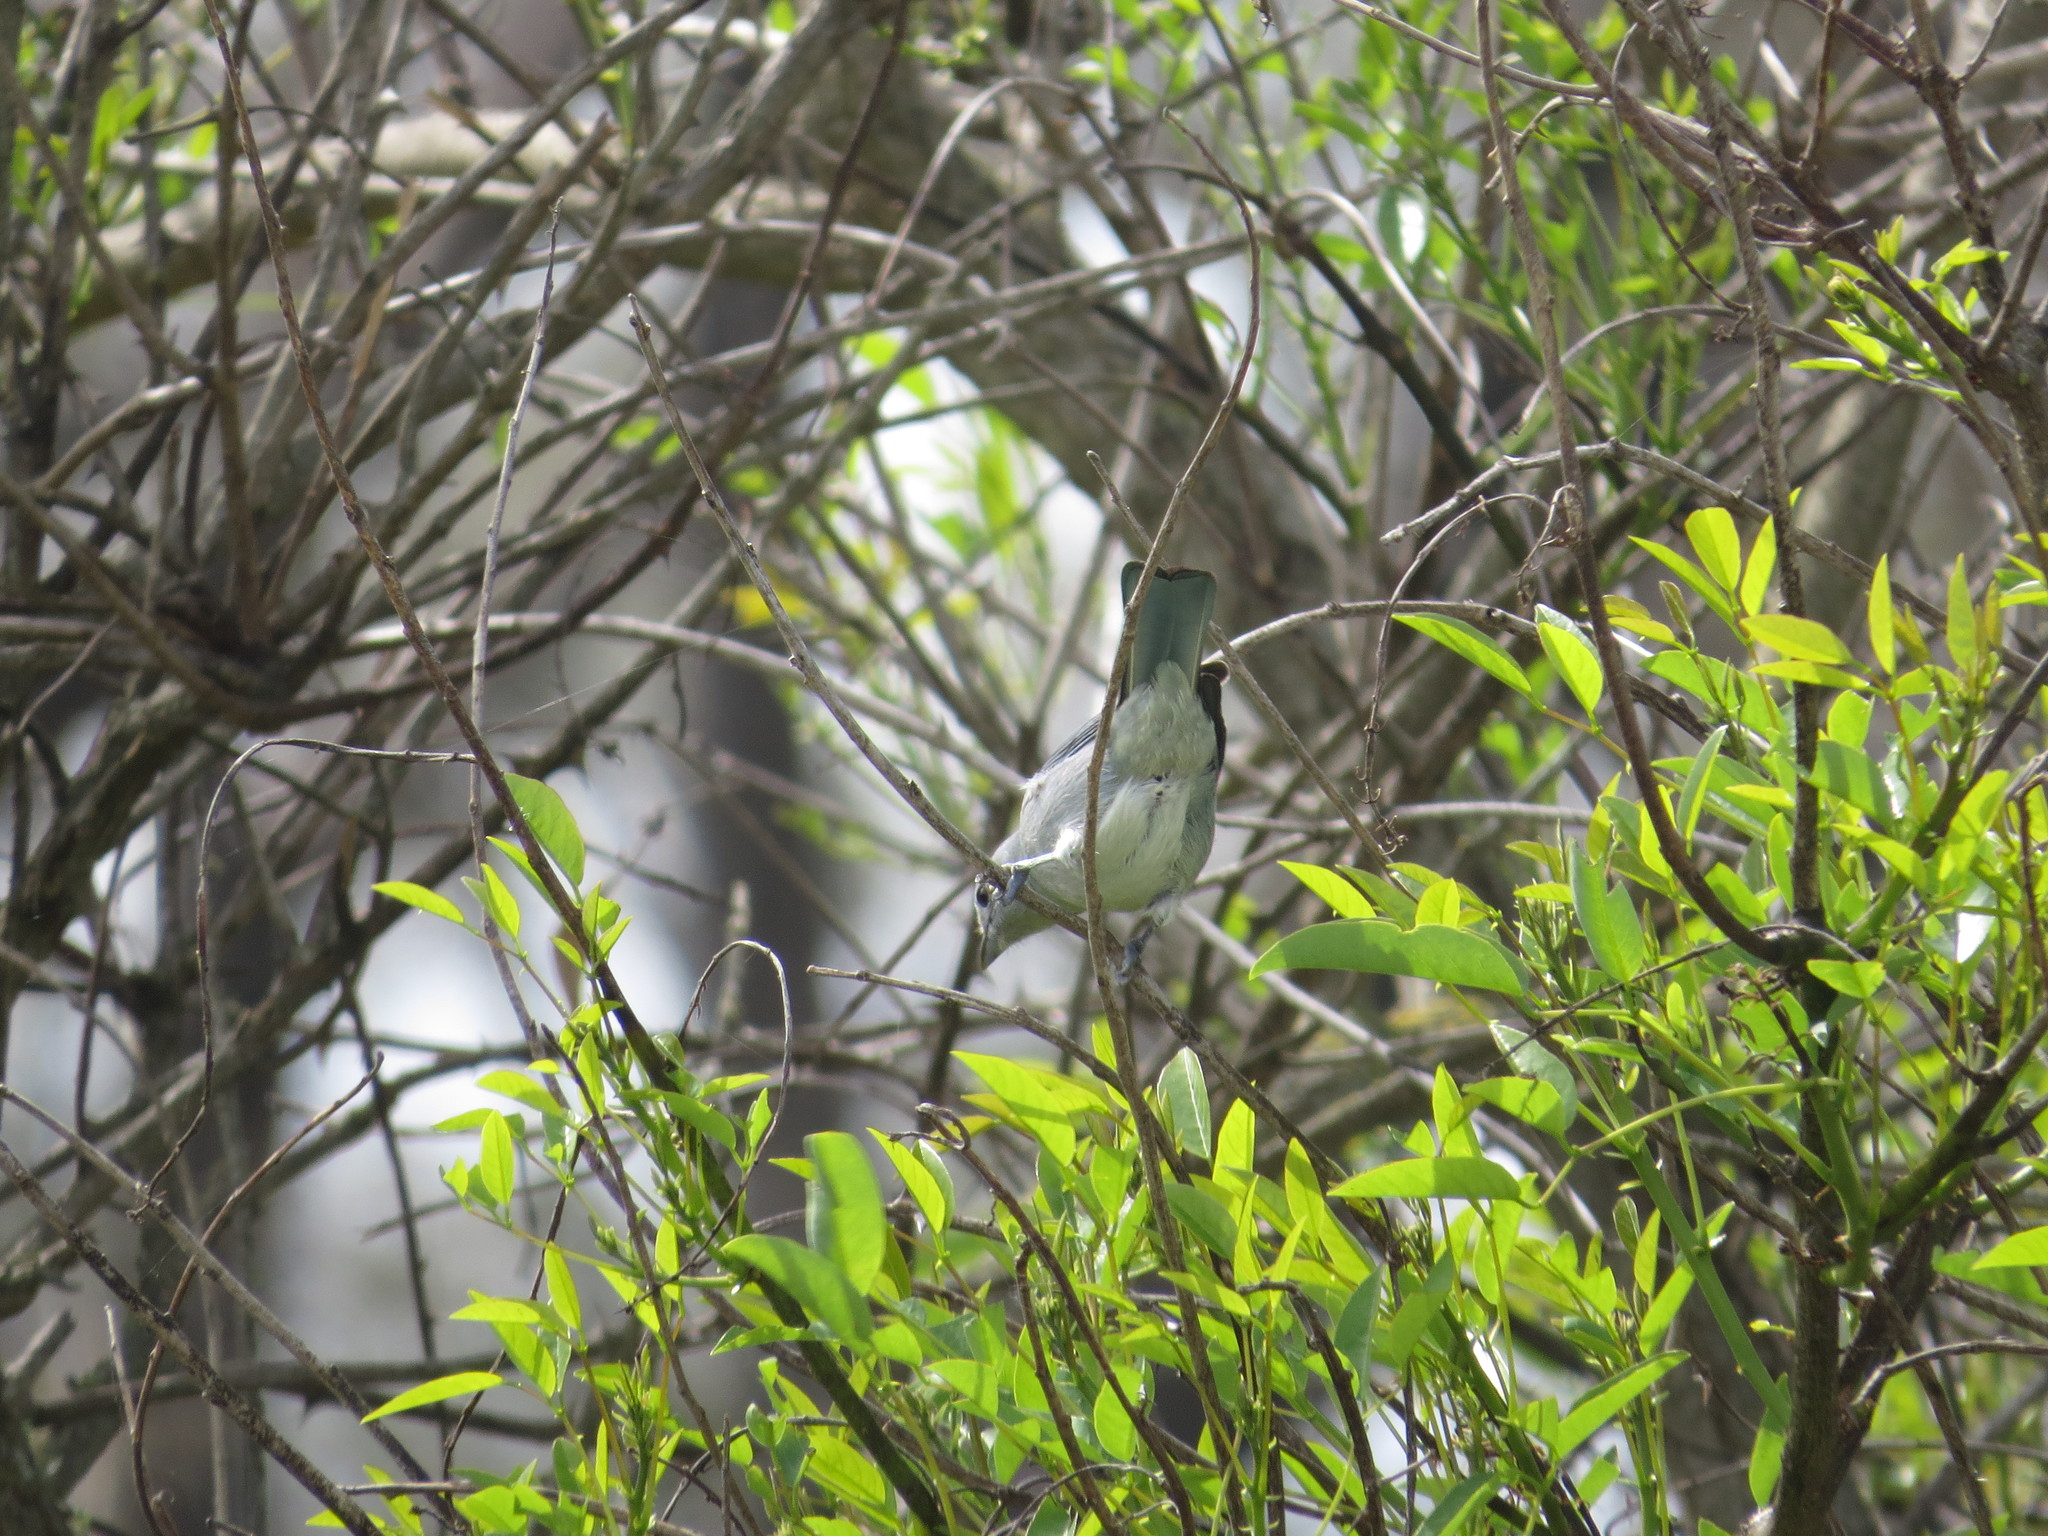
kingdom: Animalia
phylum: Chordata
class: Aves
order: Passeriformes
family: Thraupidae
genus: Thraupis
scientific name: Thraupis sayaca
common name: Sayaca tanager
